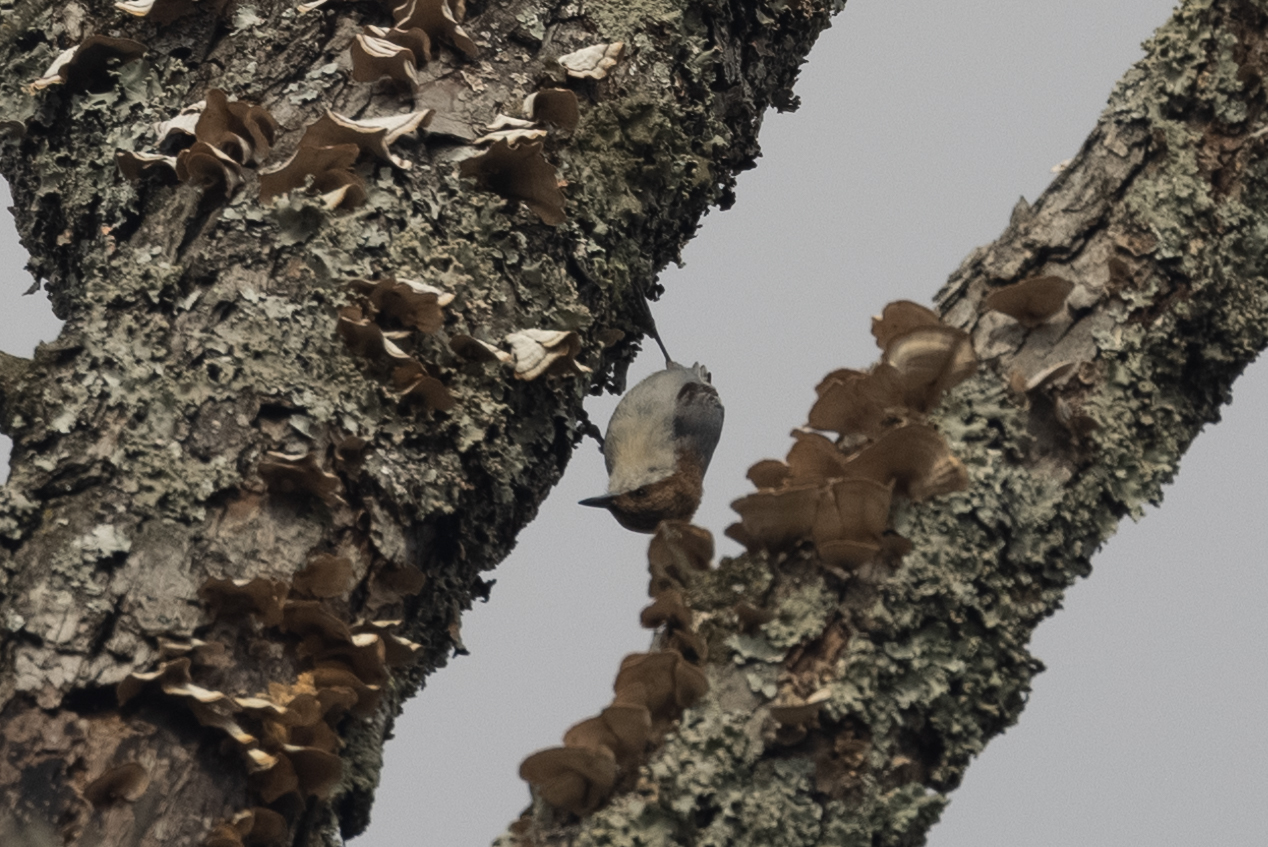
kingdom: Animalia
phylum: Chordata
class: Aves
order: Passeriformes
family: Sittidae
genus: Sitta
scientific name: Sitta pusilla
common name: Brown-headed nuthatch
